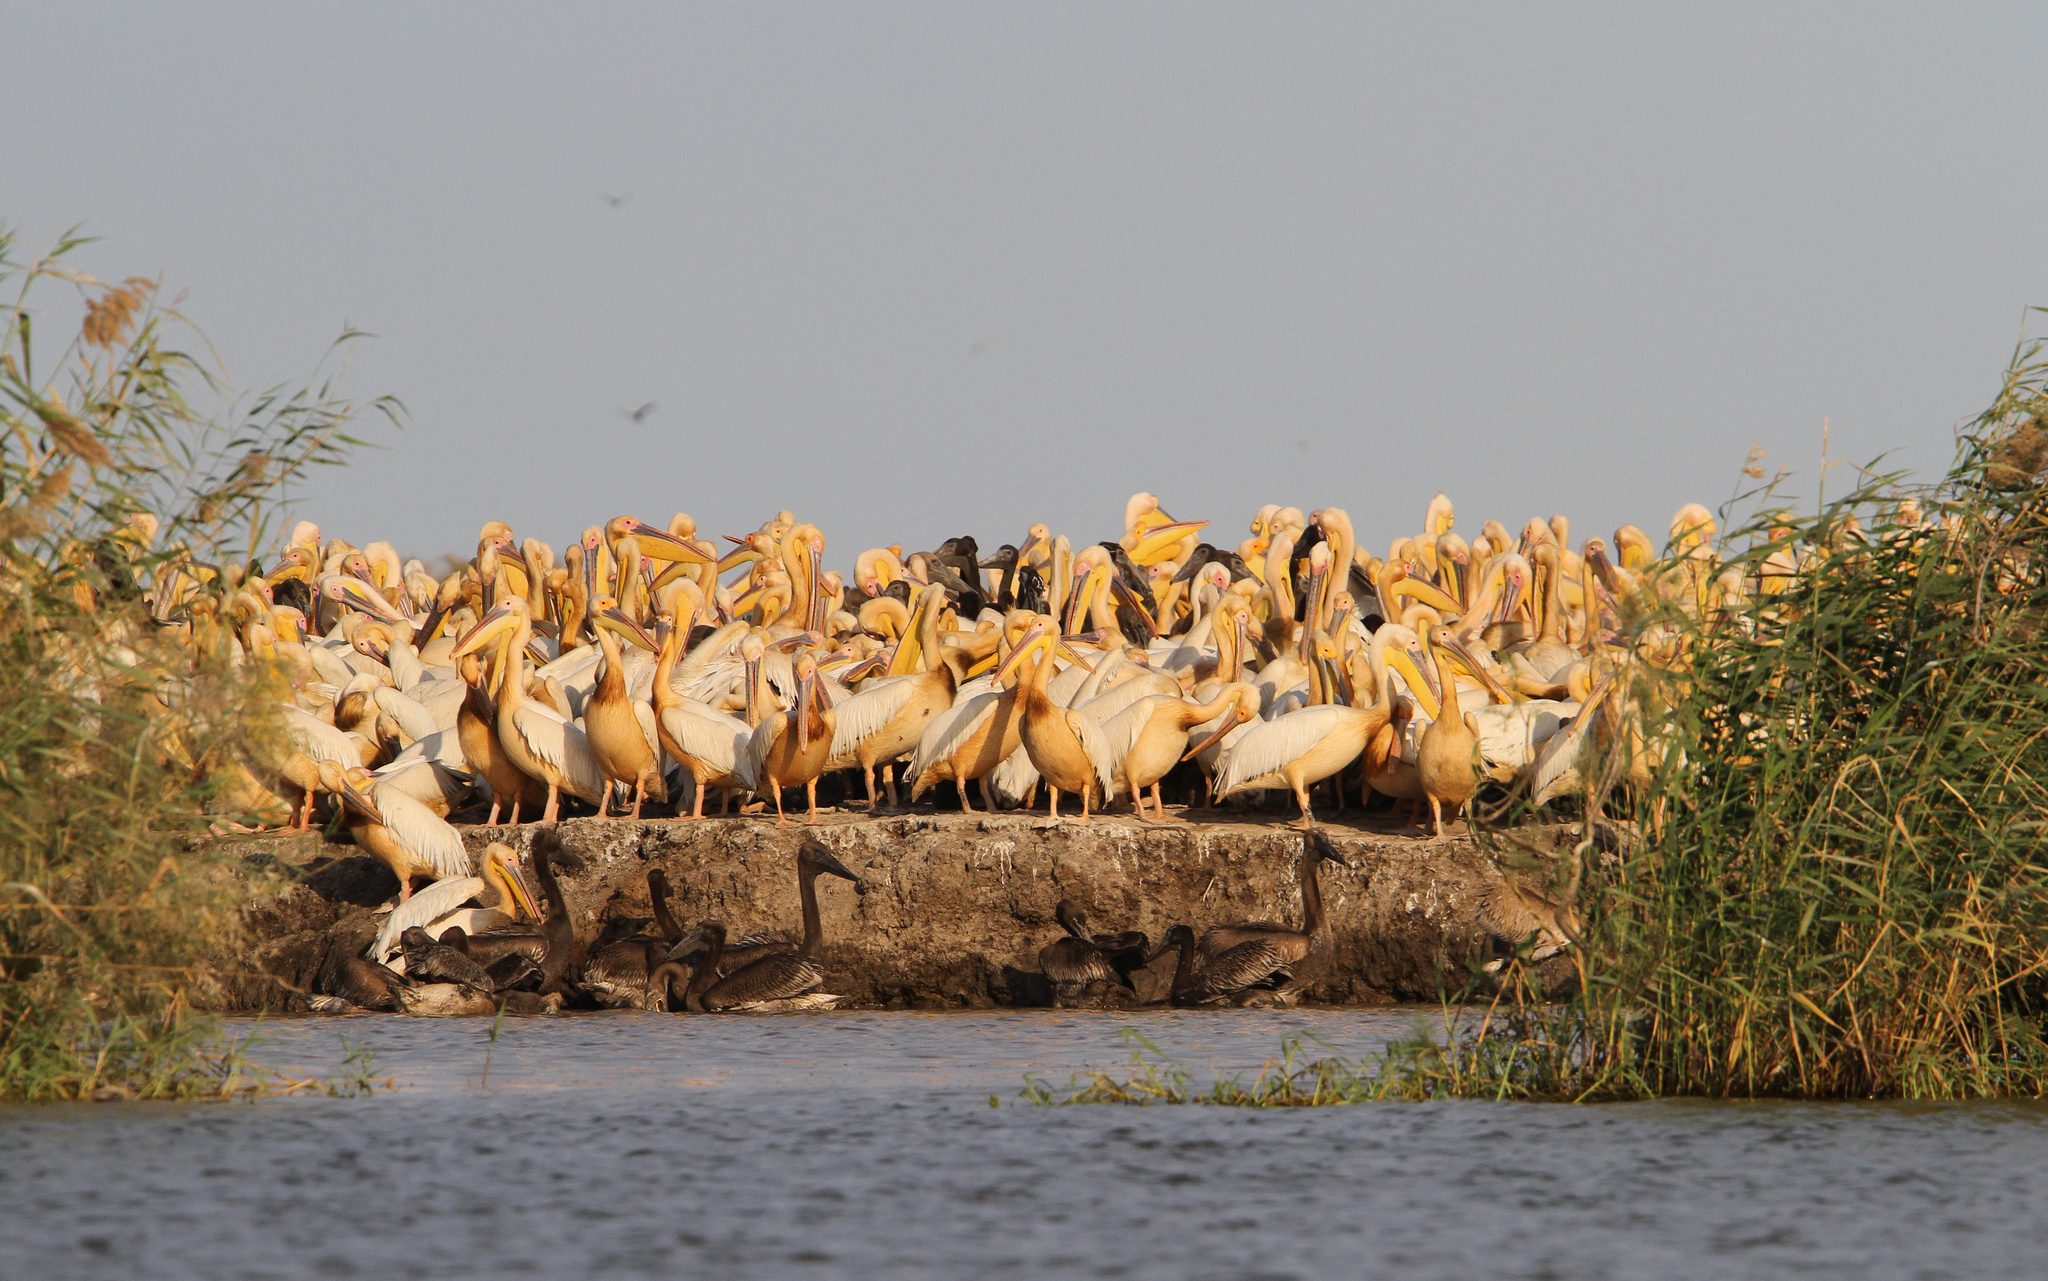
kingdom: Animalia
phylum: Chordata
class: Aves
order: Pelecaniformes
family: Pelecanidae
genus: Pelecanus
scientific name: Pelecanus onocrotalus
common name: Great white pelican
